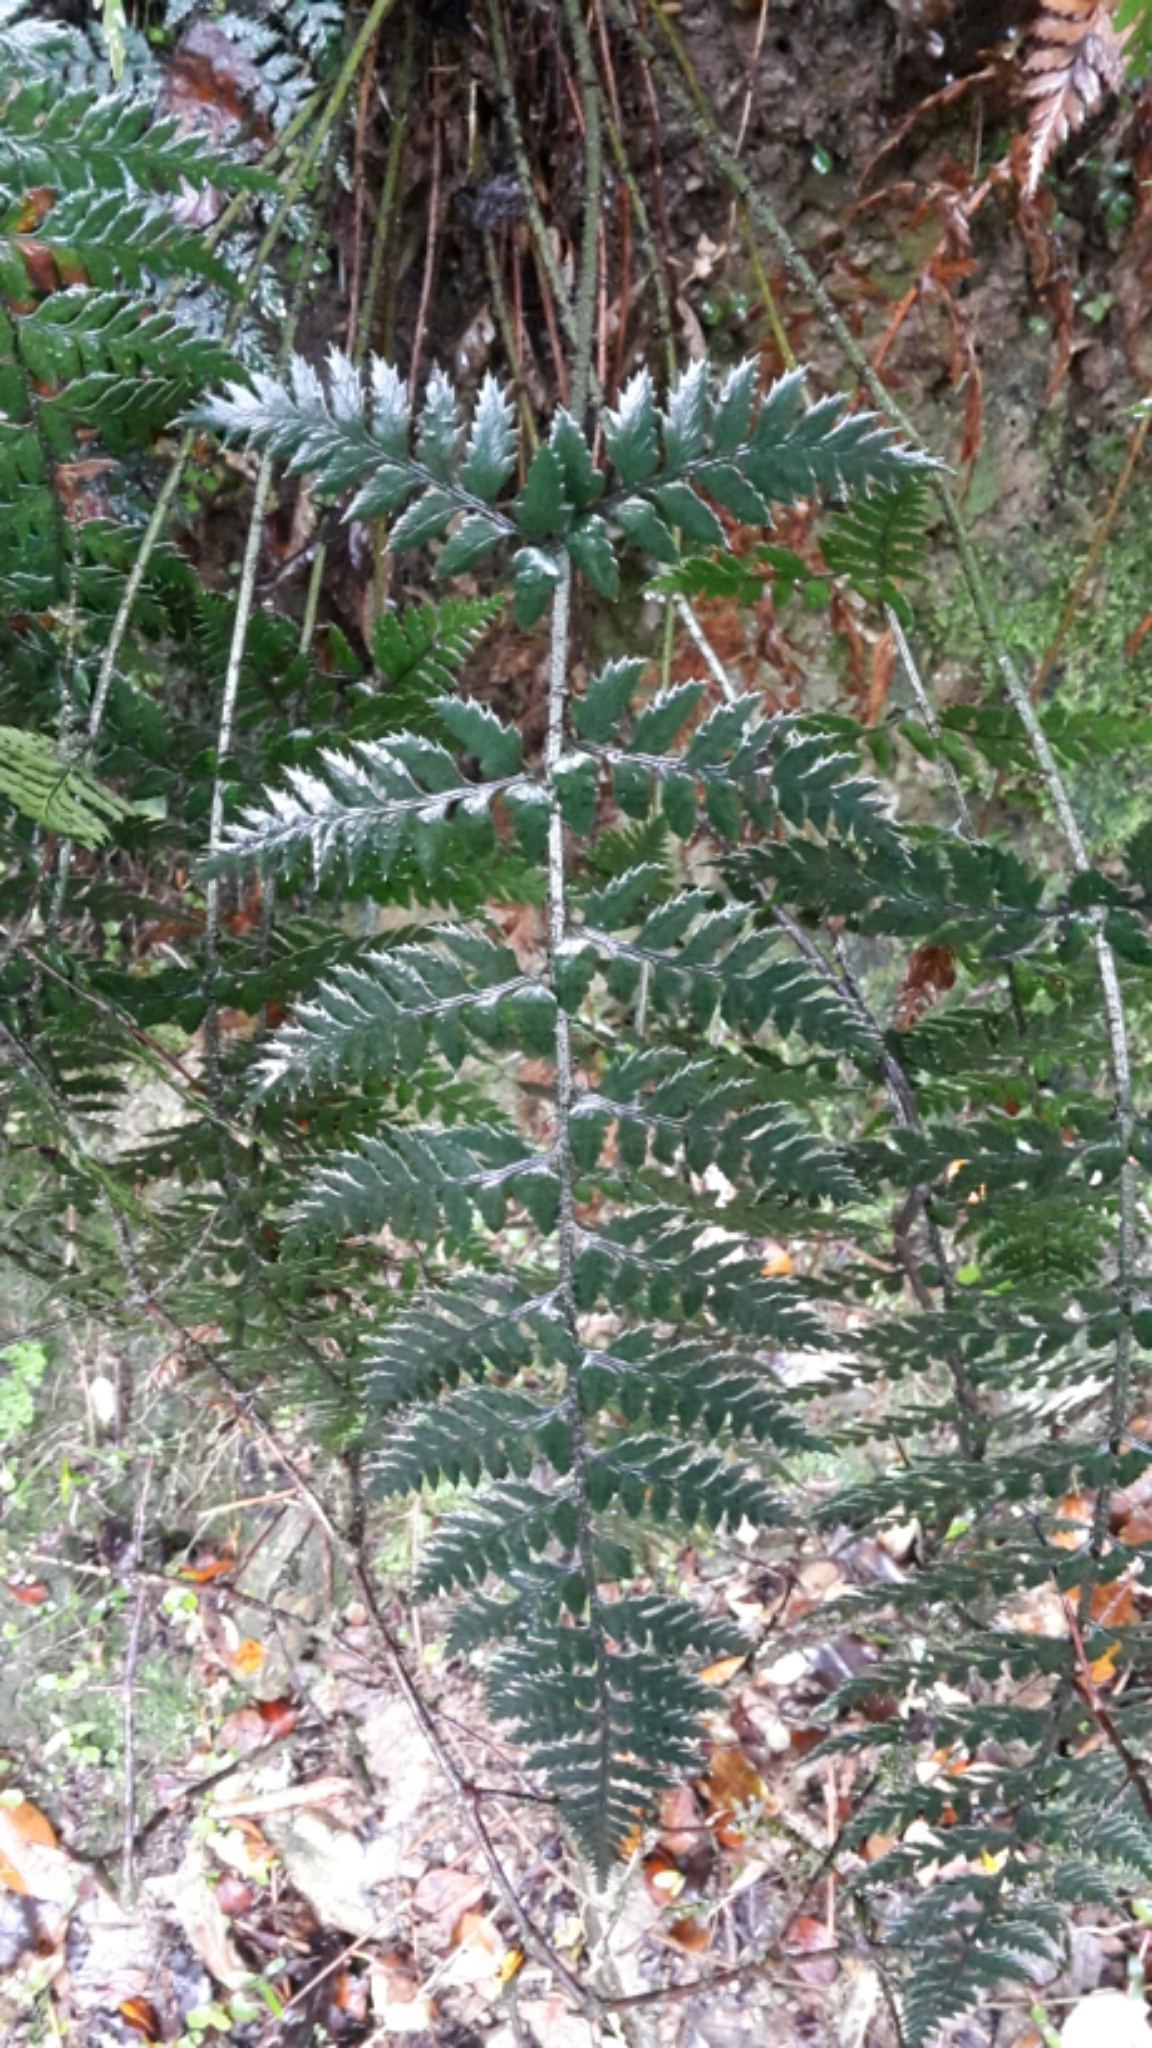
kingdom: Plantae
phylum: Tracheophyta
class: Polypodiopsida
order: Polypodiales
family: Dryopteridaceae
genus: Polystichum
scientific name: Polystichum neozelandicum
